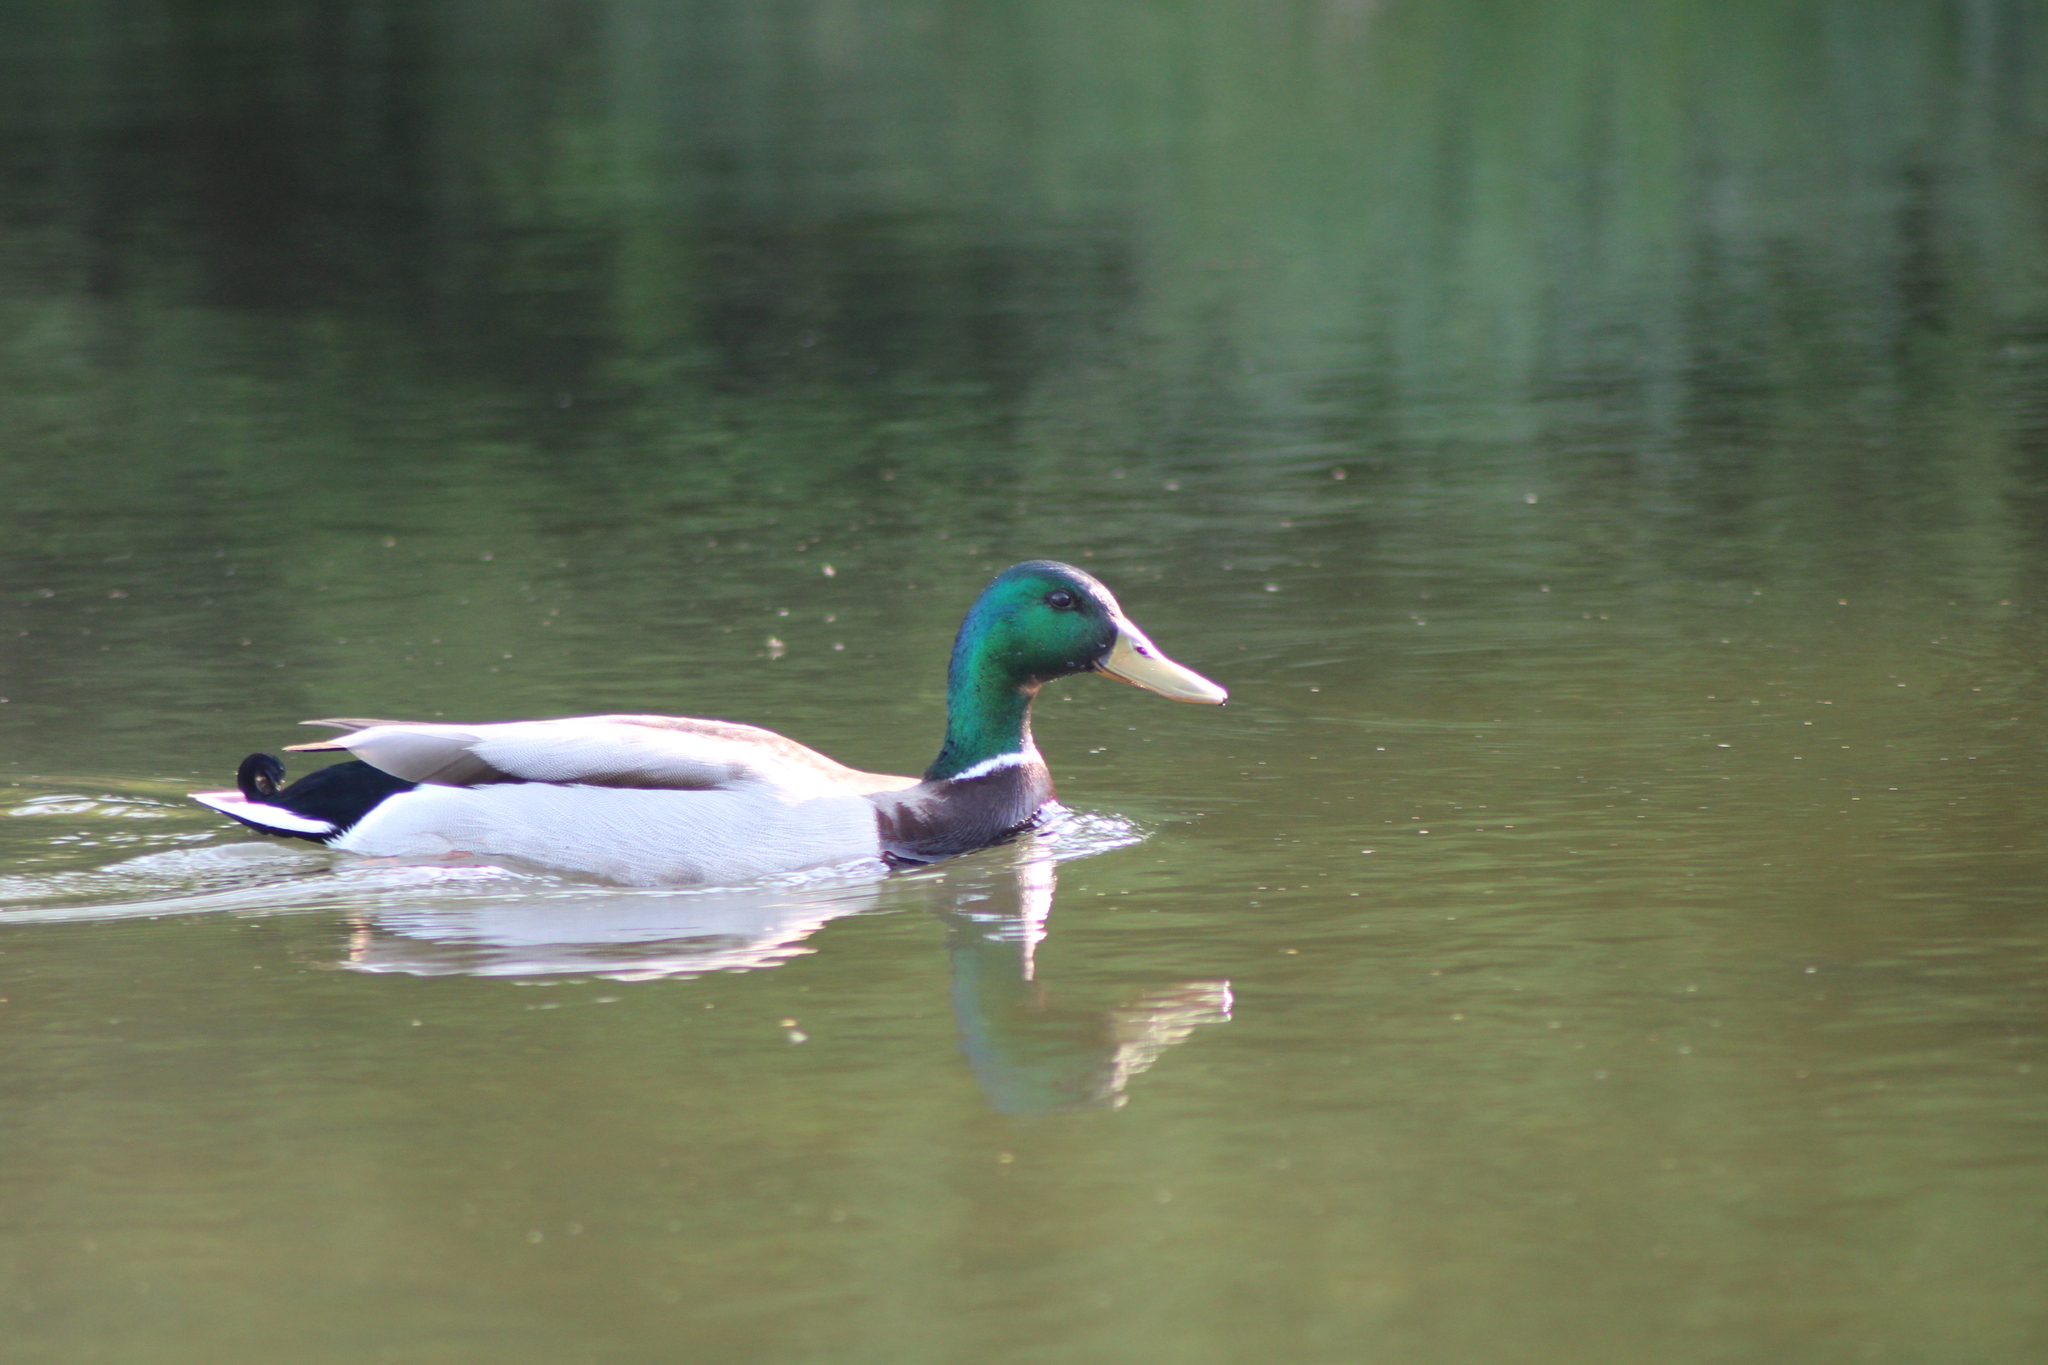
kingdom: Animalia
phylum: Chordata
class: Aves
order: Anseriformes
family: Anatidae
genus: Anas
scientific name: Anas platyrhynchos
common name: Mallard
